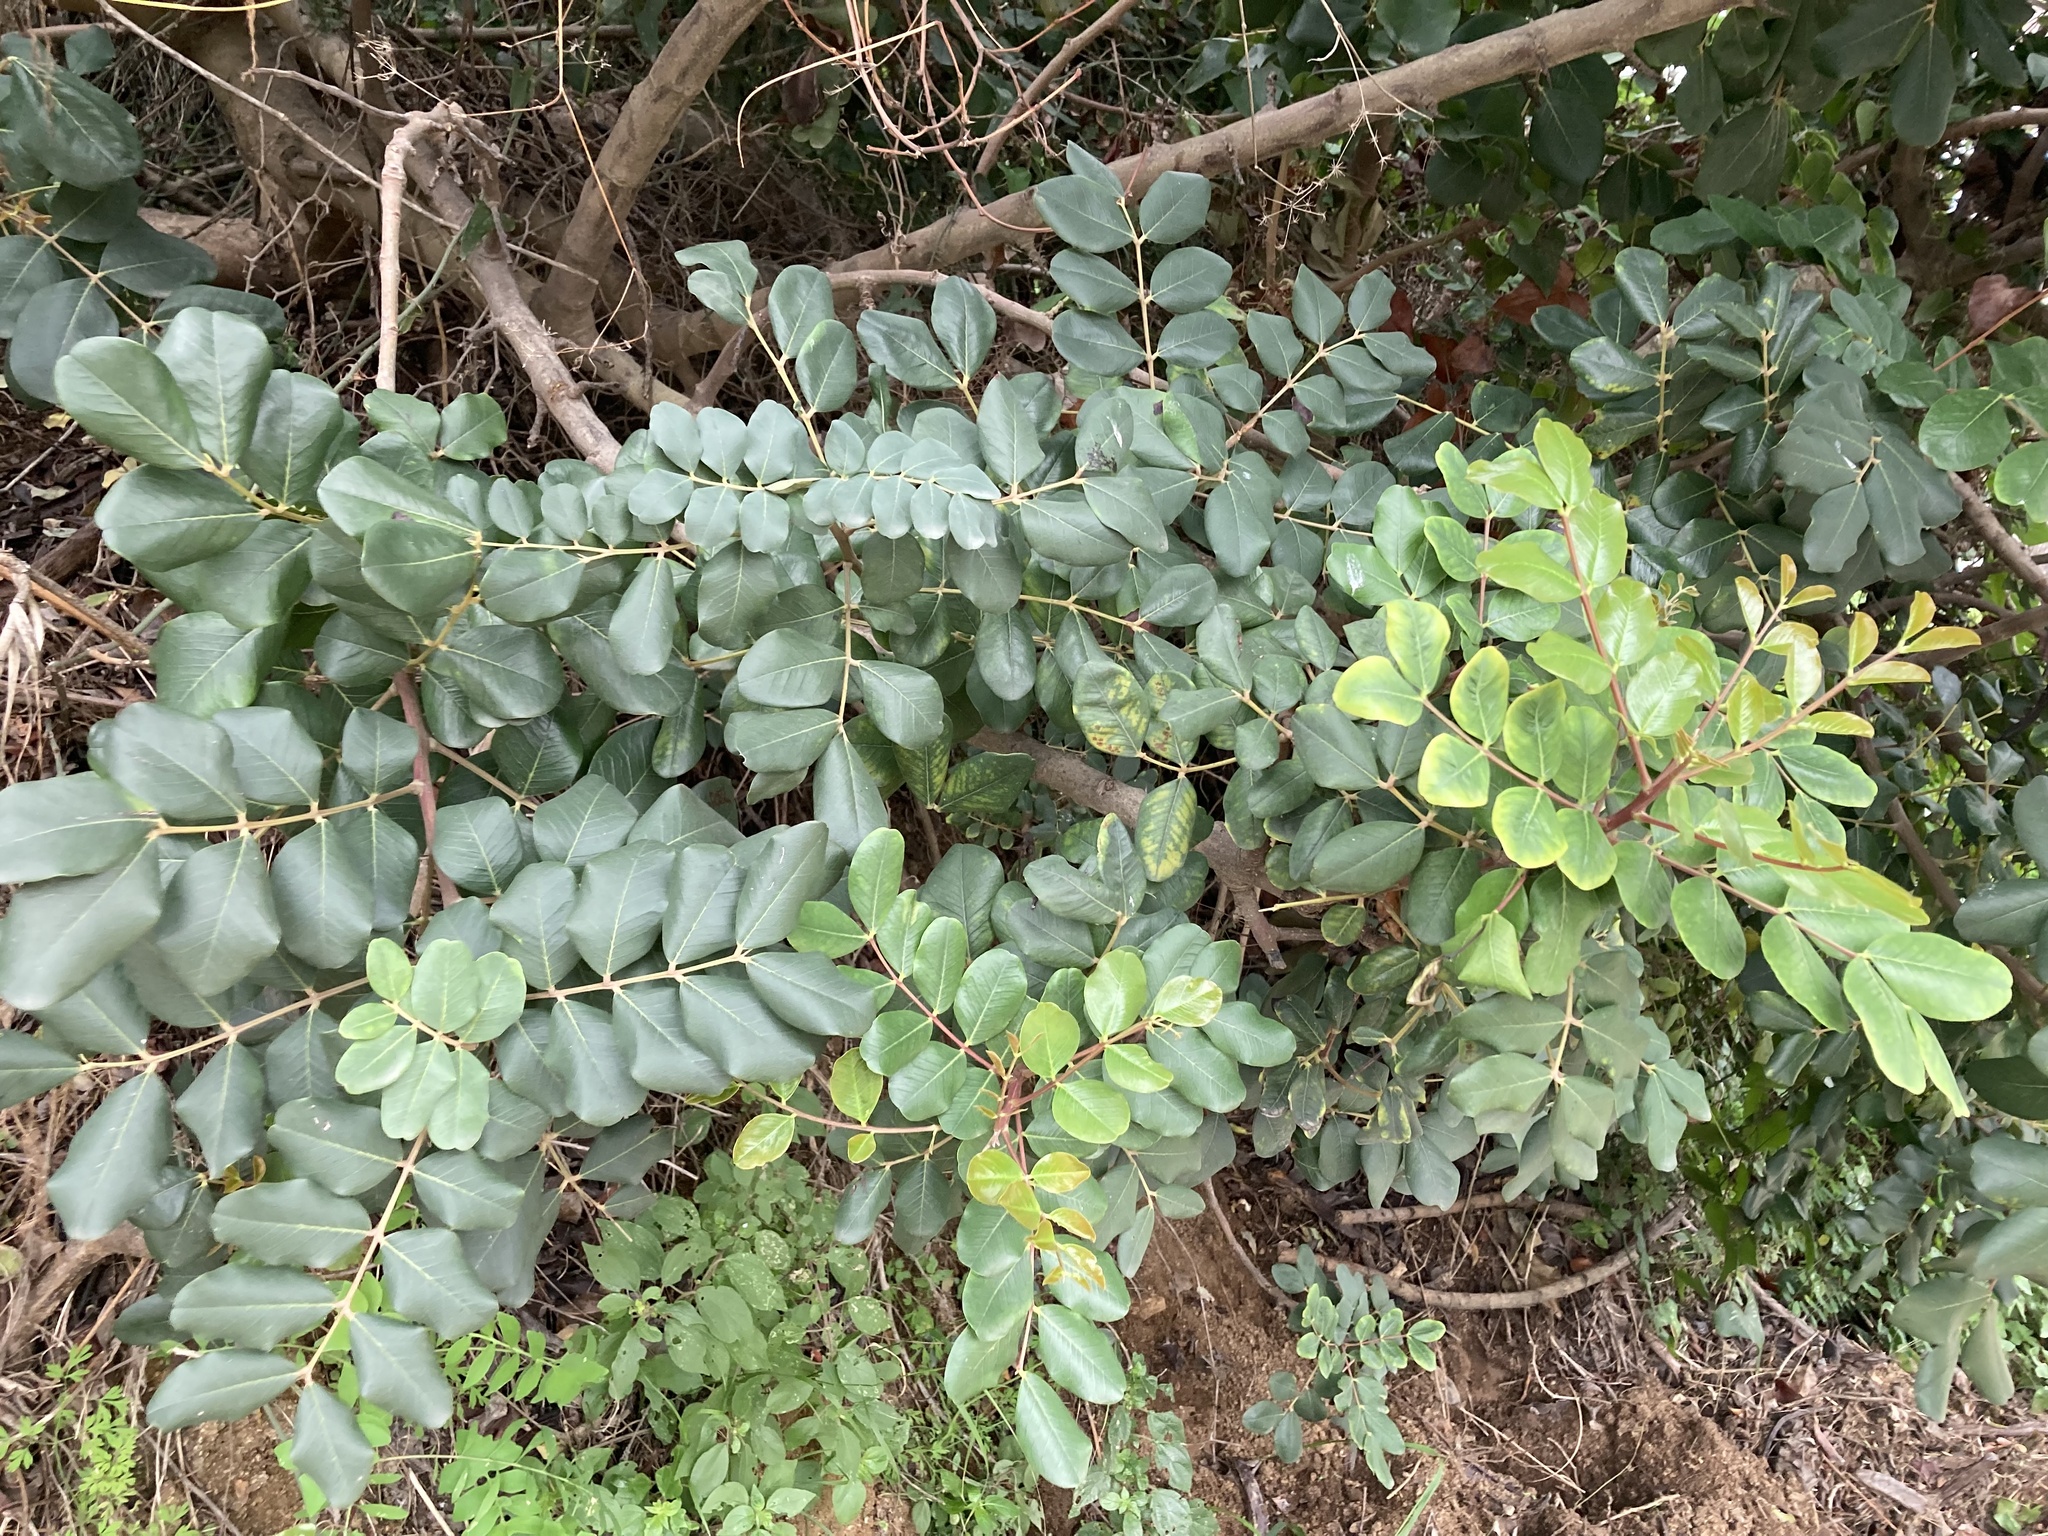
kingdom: Plantae
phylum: Tracheophyta
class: Magnoliopsida
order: Fabales
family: Fabaceae
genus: Ceratonia
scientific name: Ceratonia siliqua
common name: Carob
